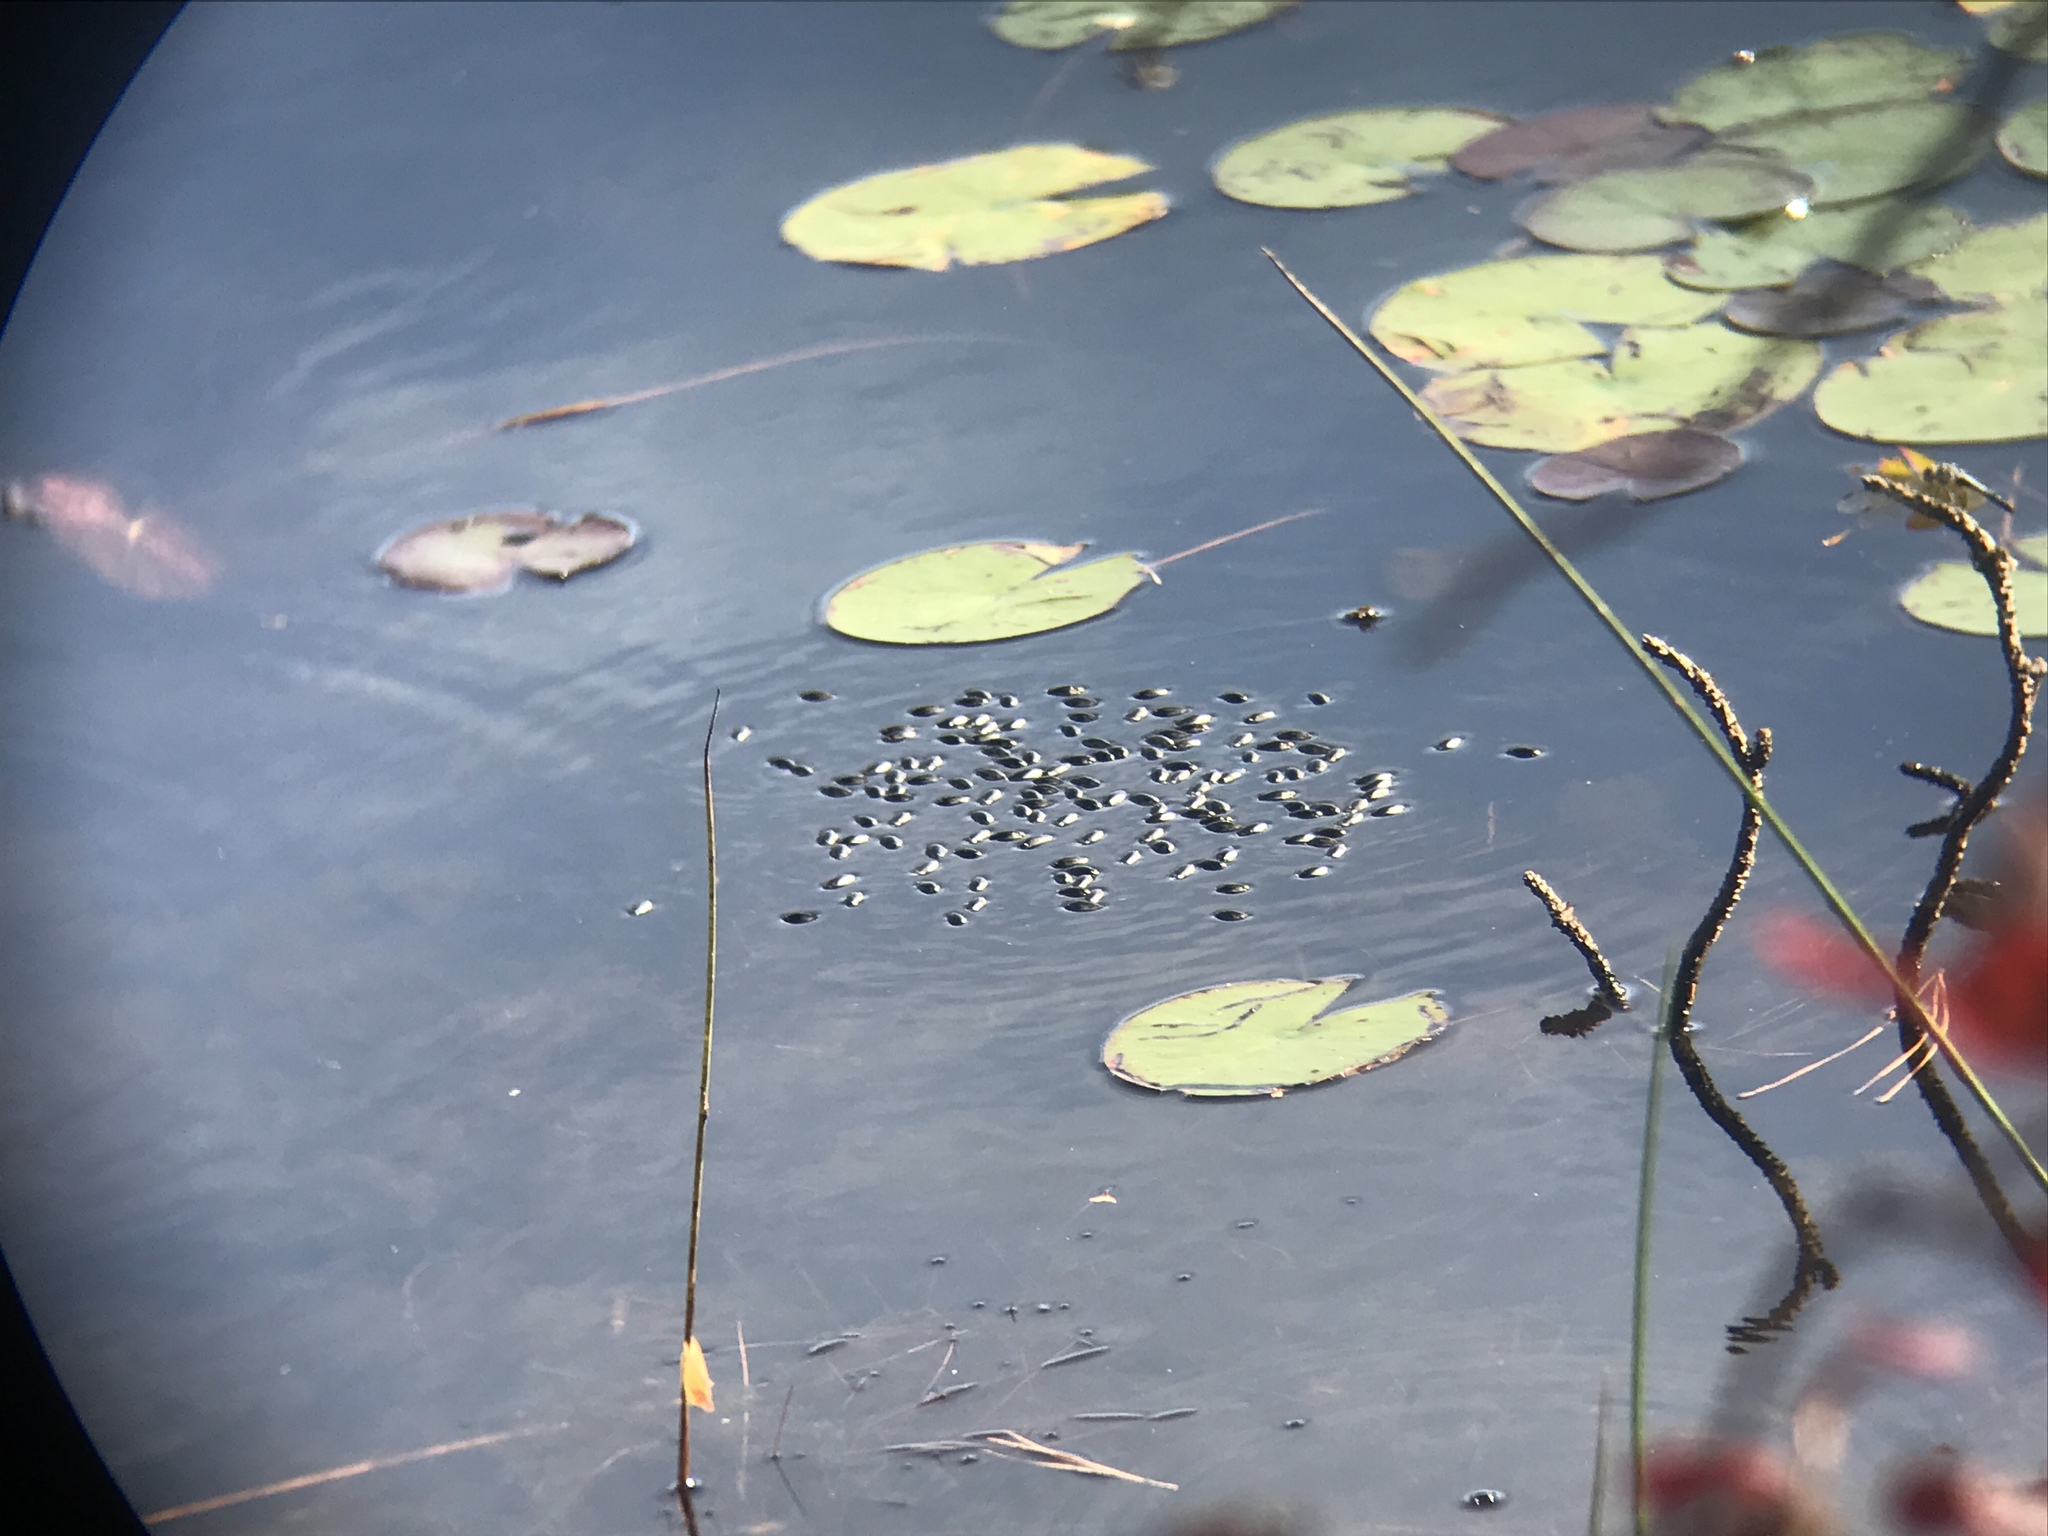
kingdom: Animalia
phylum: Arthropoda
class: Insecta
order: Coleoptera
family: Gyrinidae
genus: Dineutus
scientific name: Dineutus
